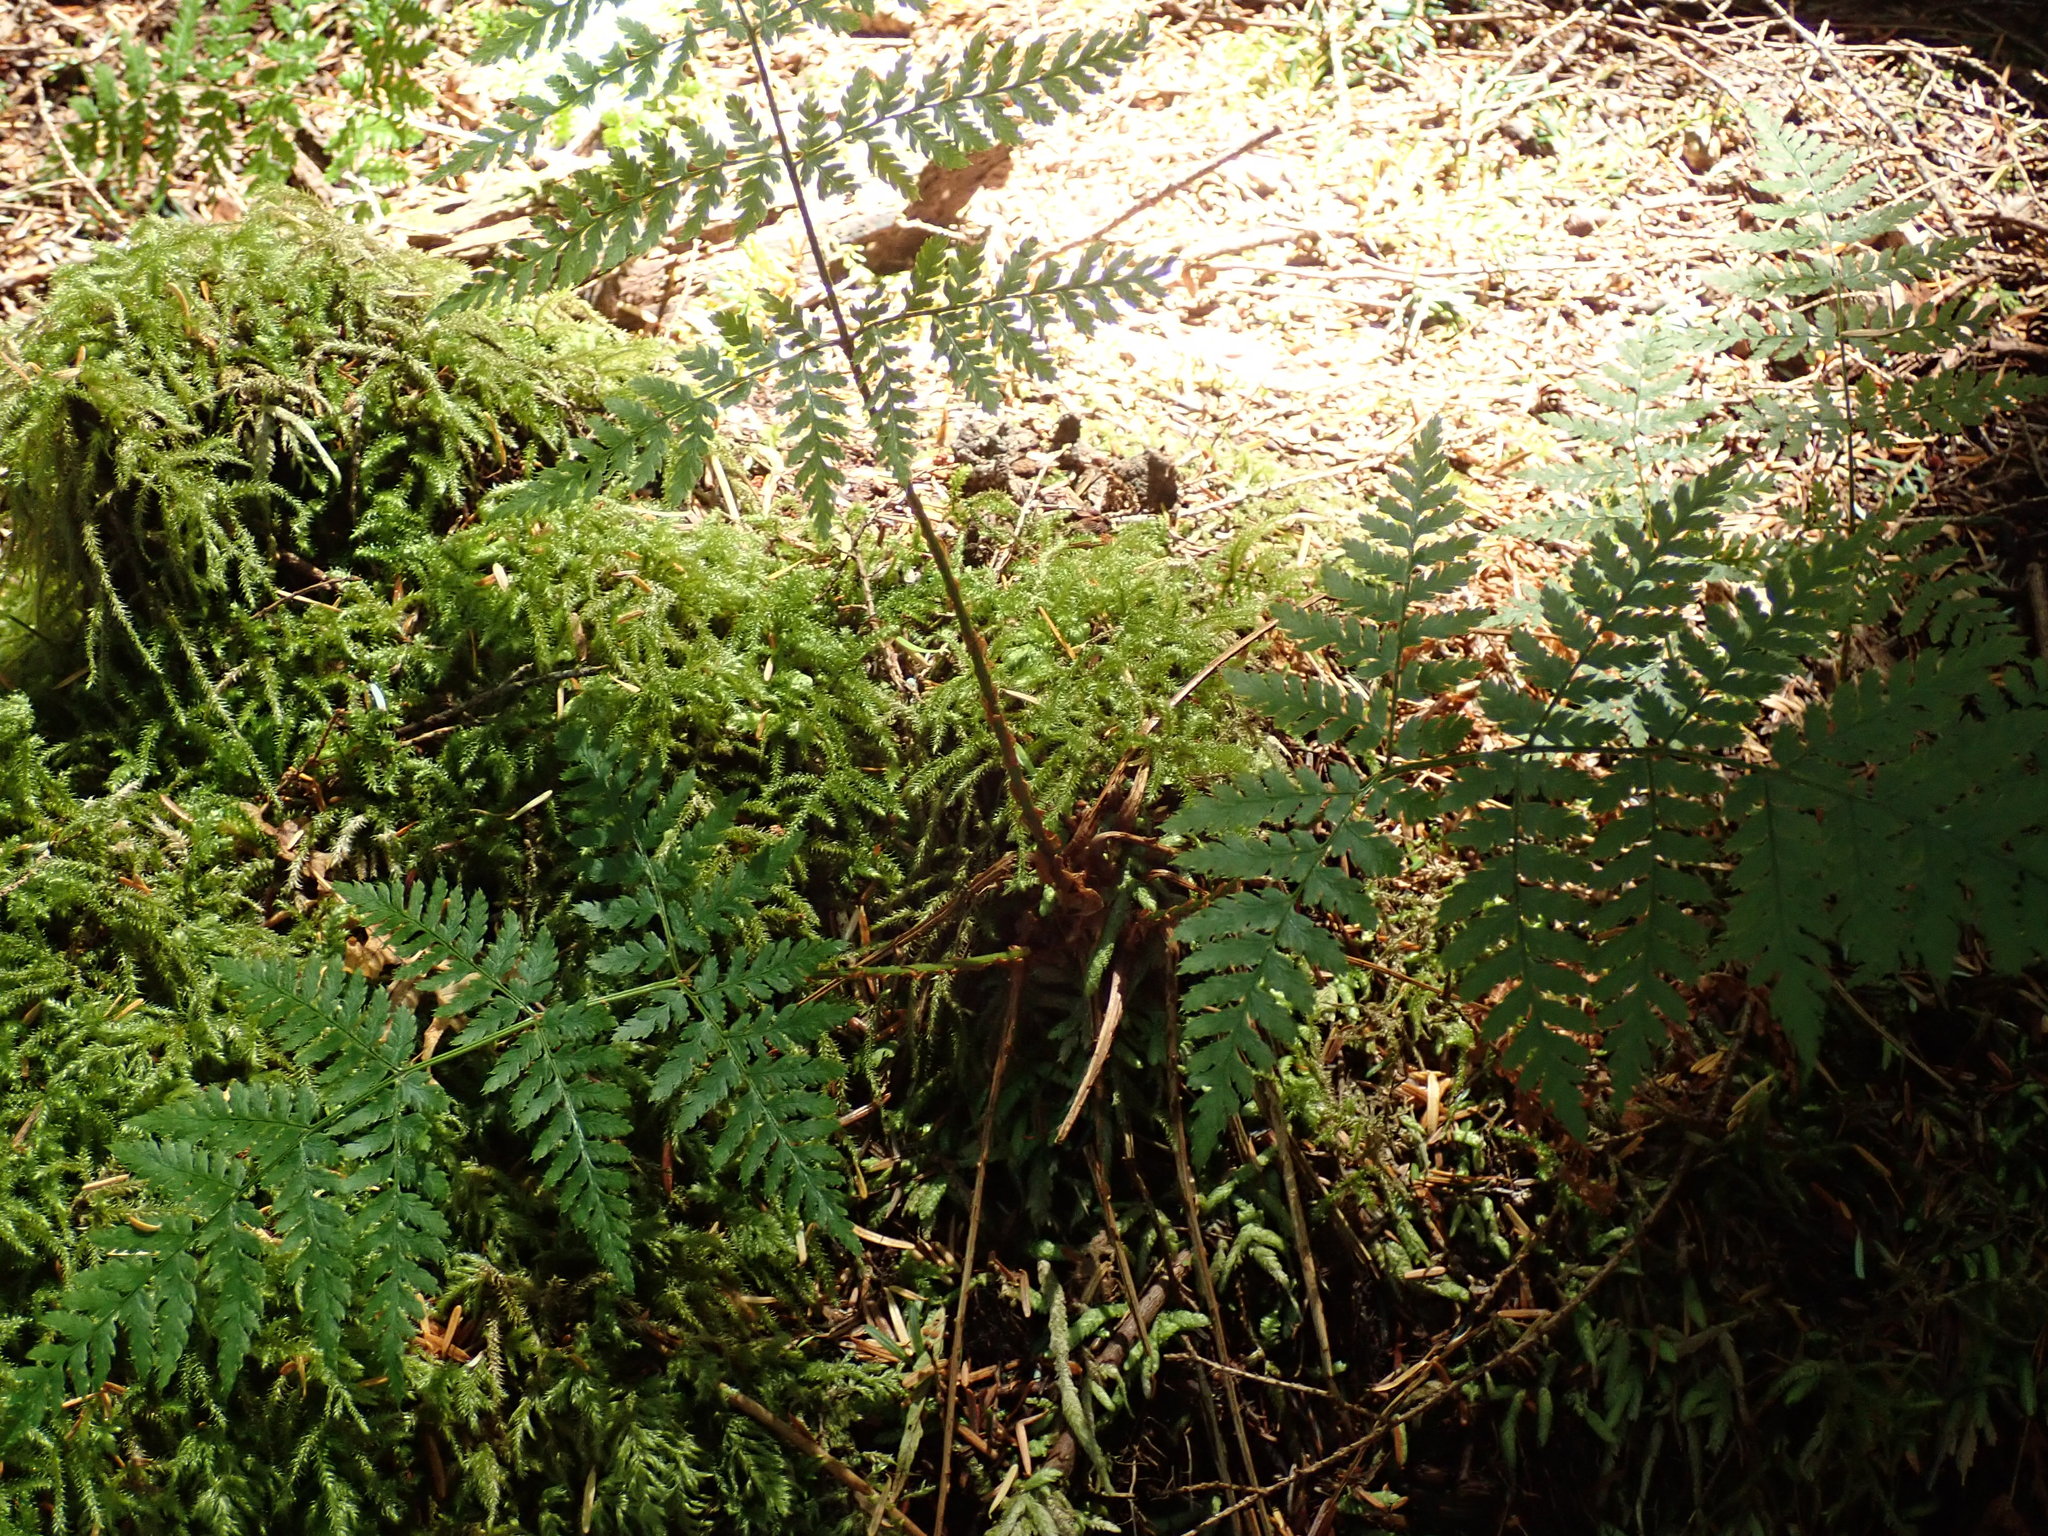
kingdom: Plantae
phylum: Tracheophyta
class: Polypodiopsida
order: Polypodiales
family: Dryopteridaceae
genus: Dryopteris
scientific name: Dryopteris expansa
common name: Northern buckler fern
